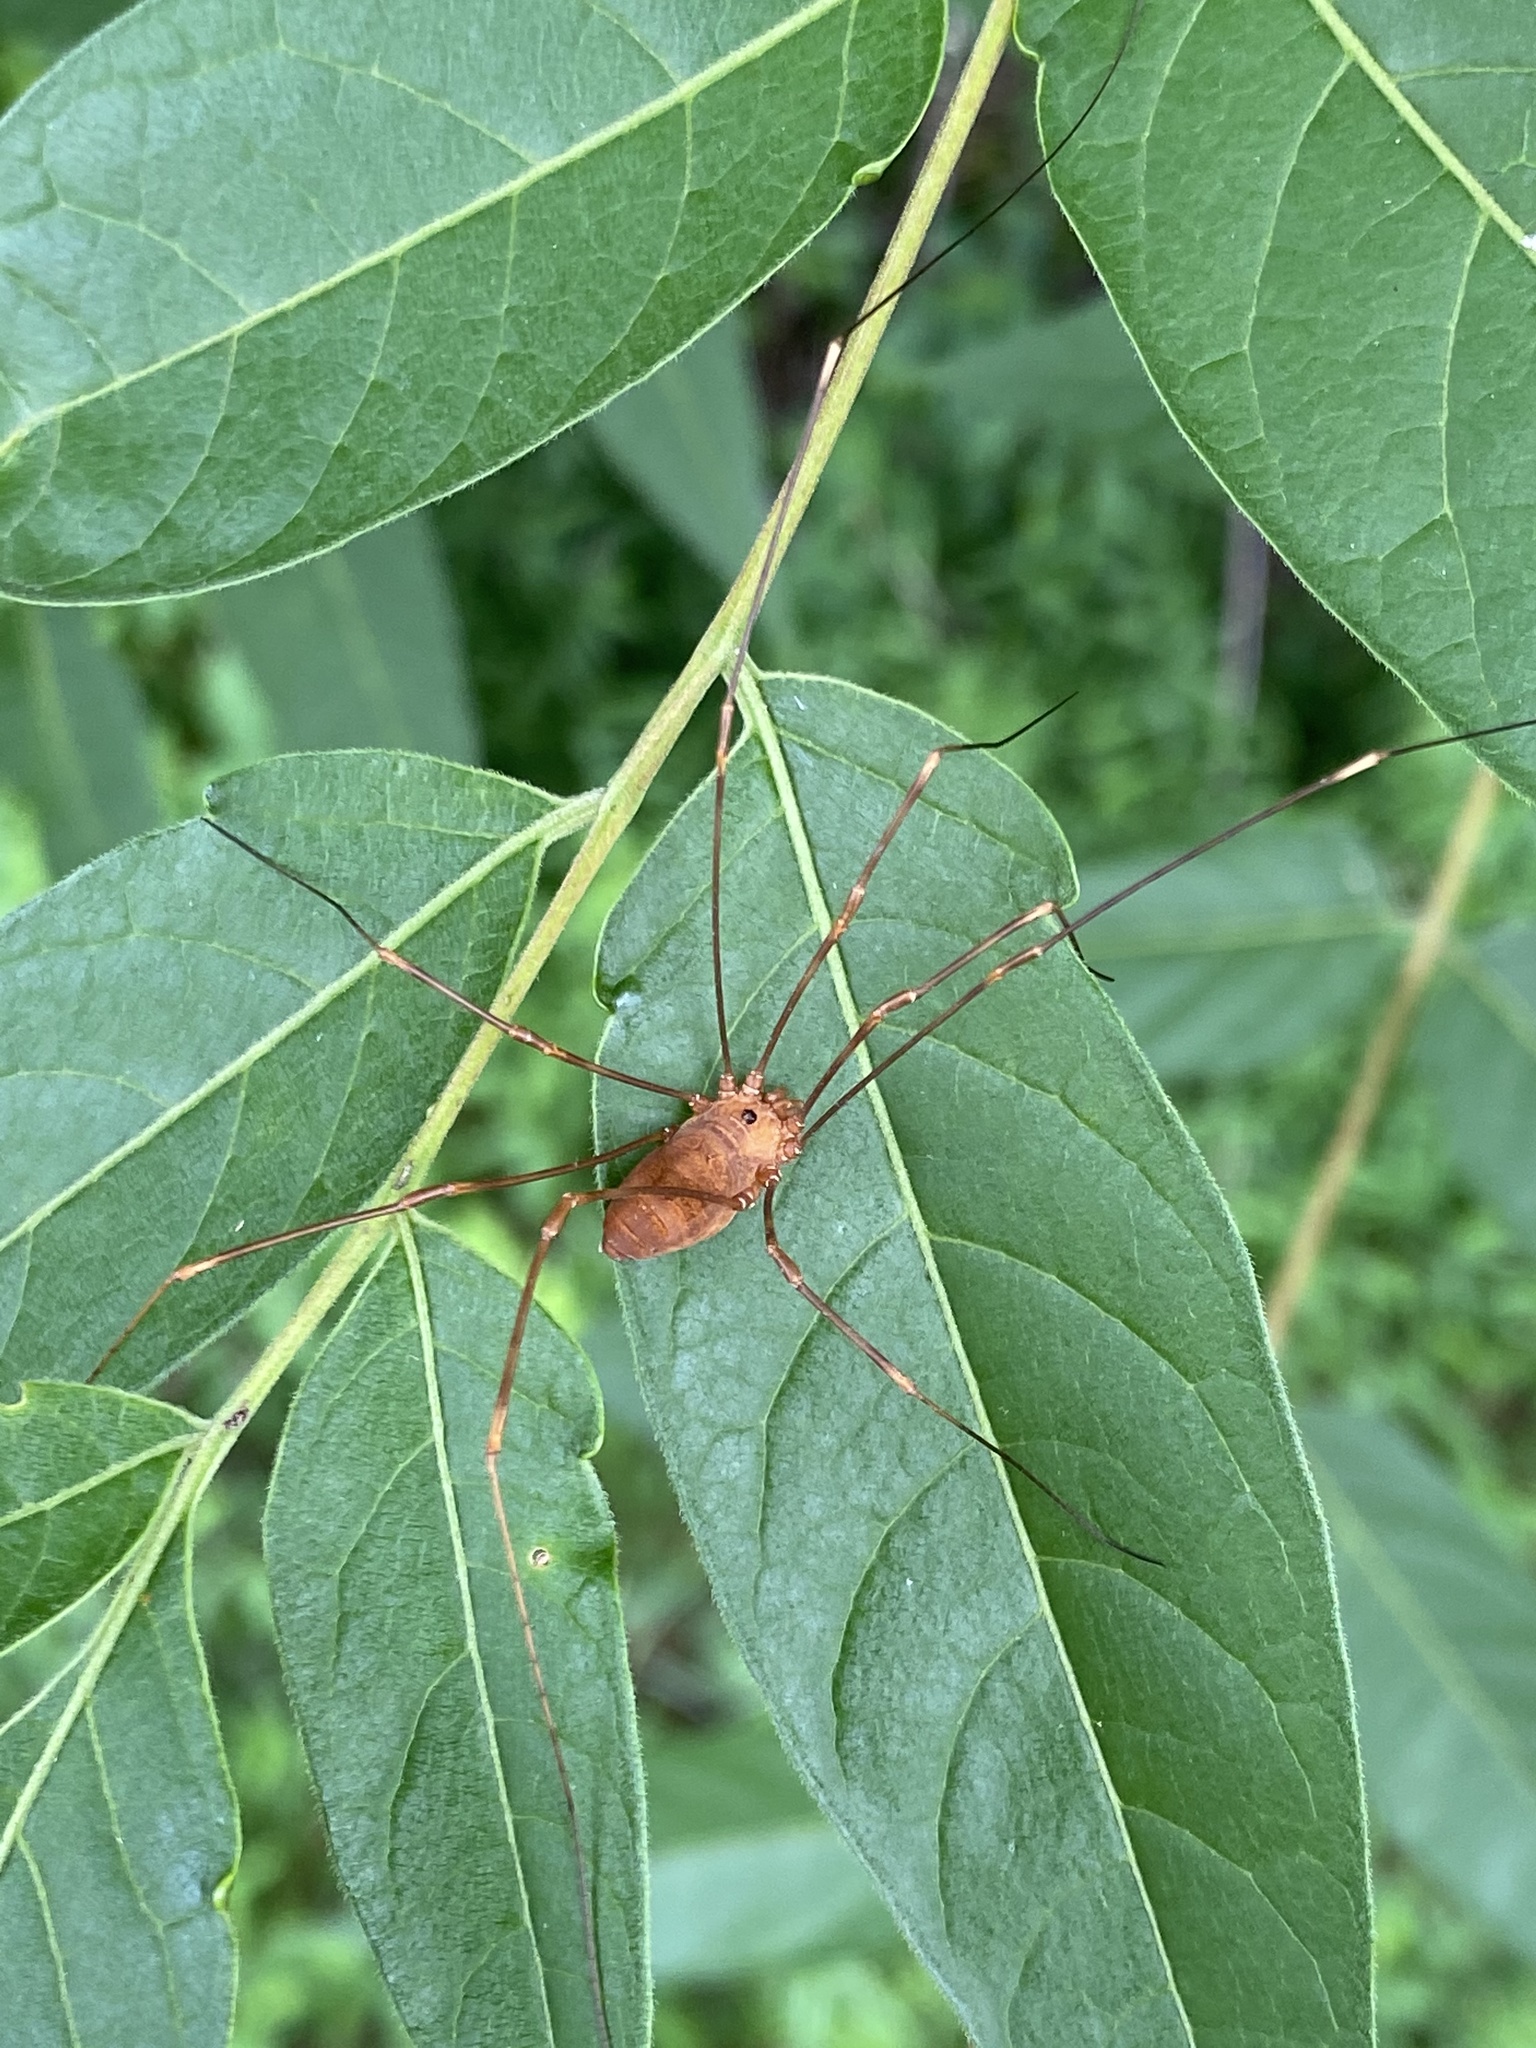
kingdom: Animalia
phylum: Arthropoda
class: Arachnida
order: Opiliones
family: Sclerosomatidae
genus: Leiobunum
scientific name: Leiobunum ventricosum
